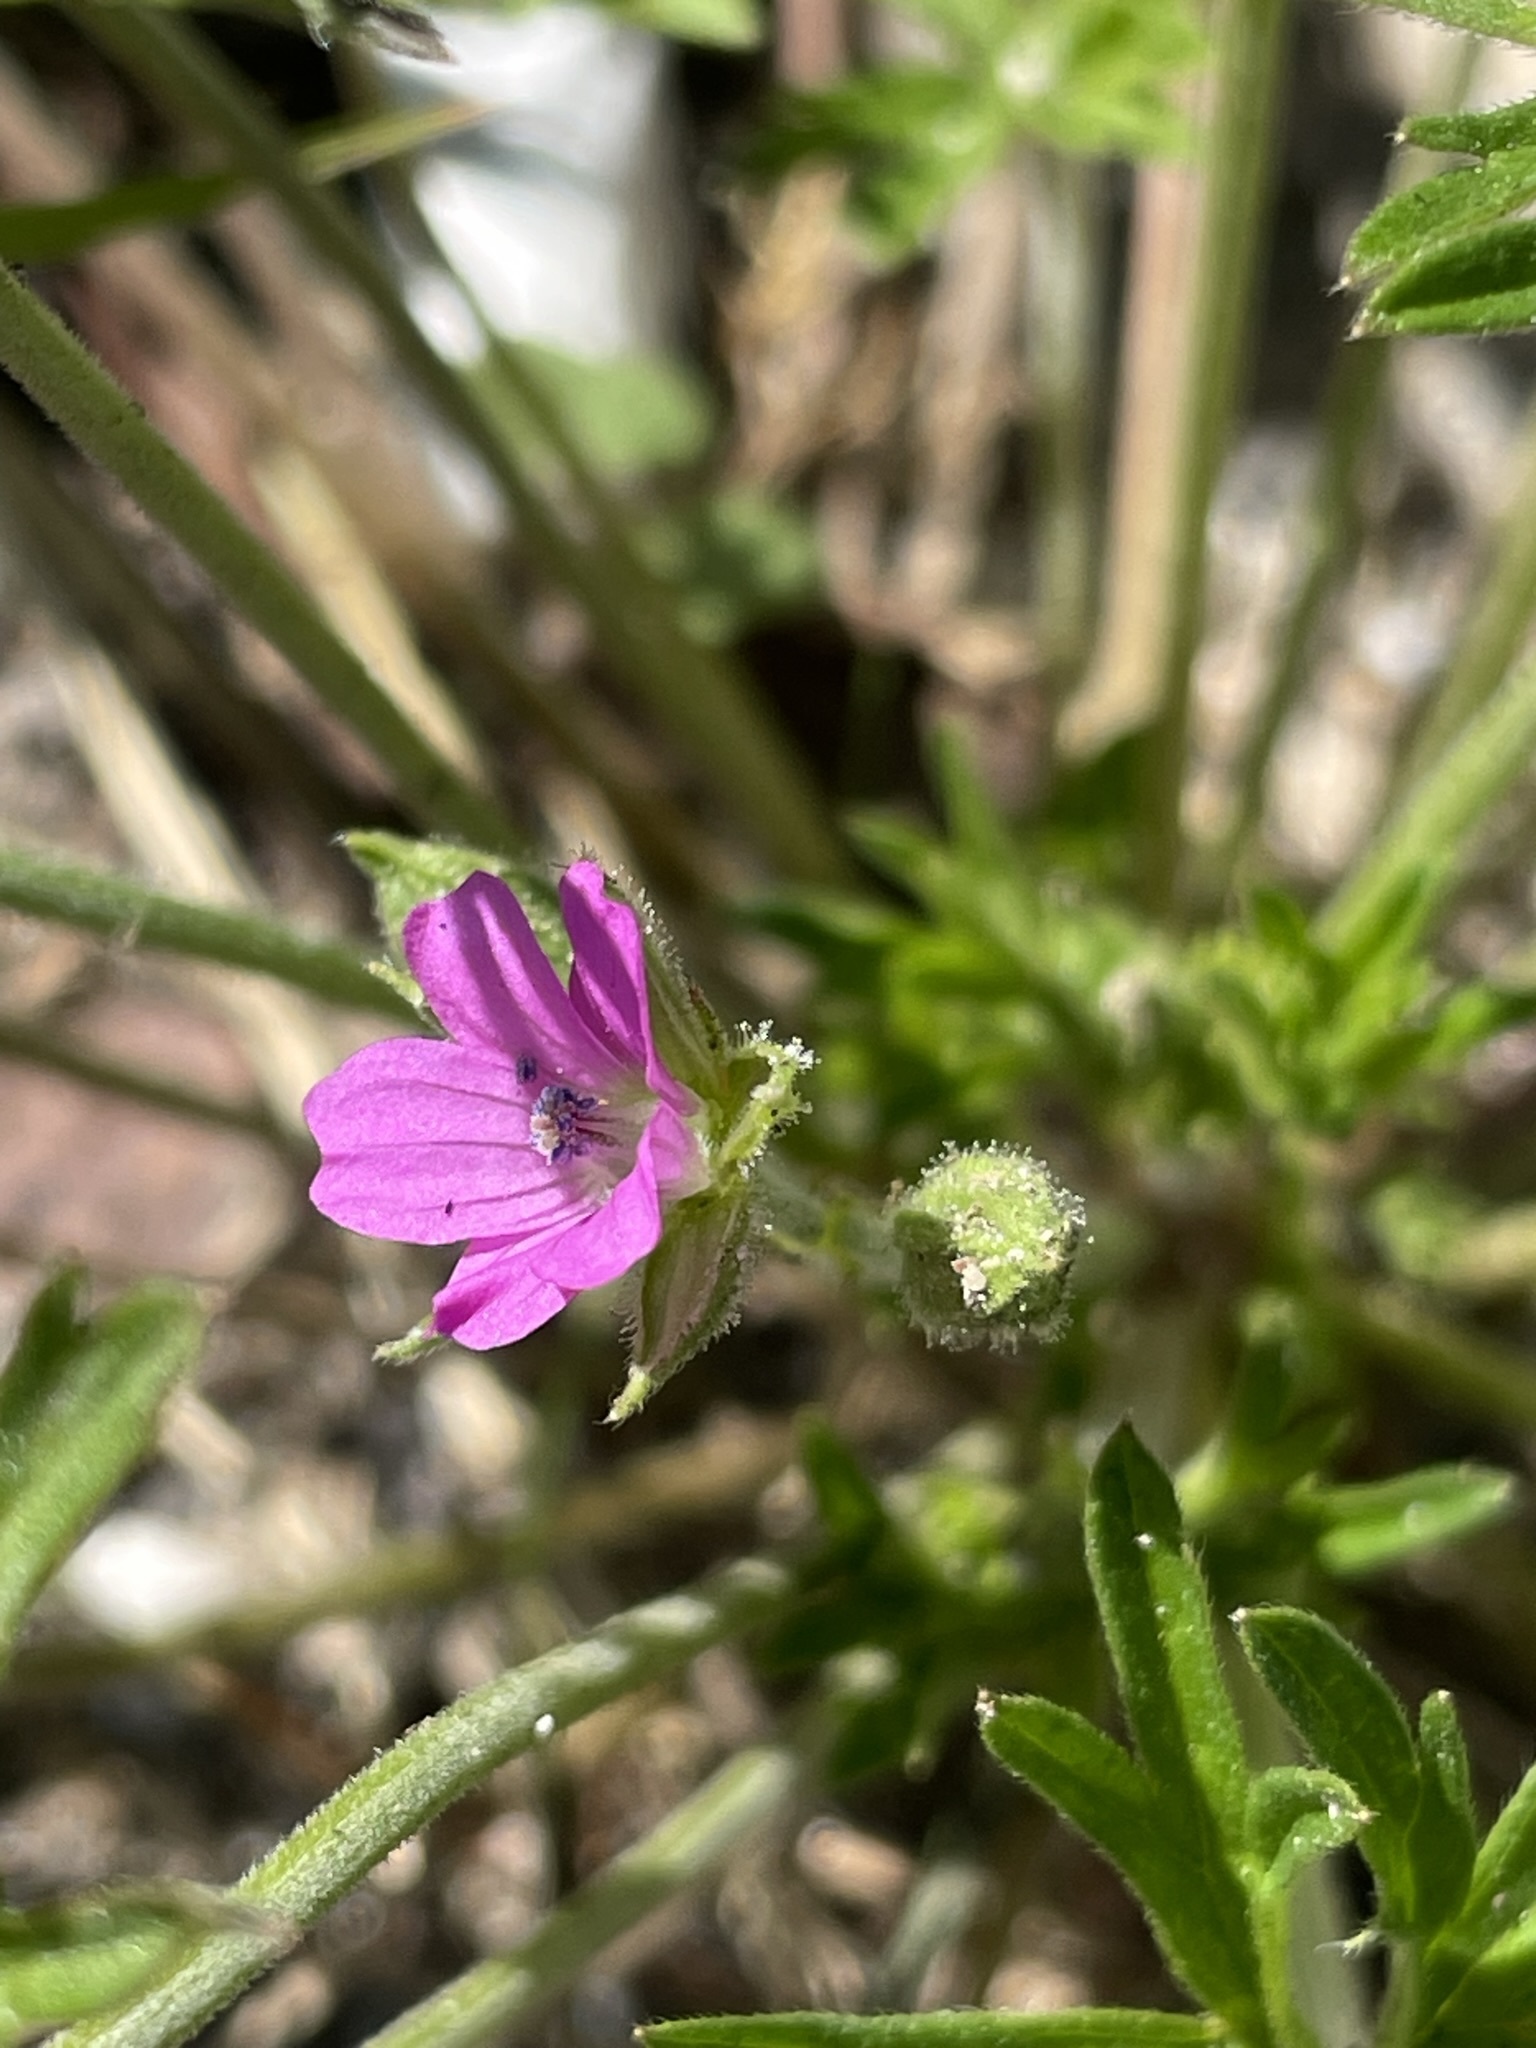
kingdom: Plantae
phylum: Tracheophyta
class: Magnoliopsida
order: Geraniales
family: Geraniaceae
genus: Geranium
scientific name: Geranium dissectum
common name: Cut-leaved crane's-bill
